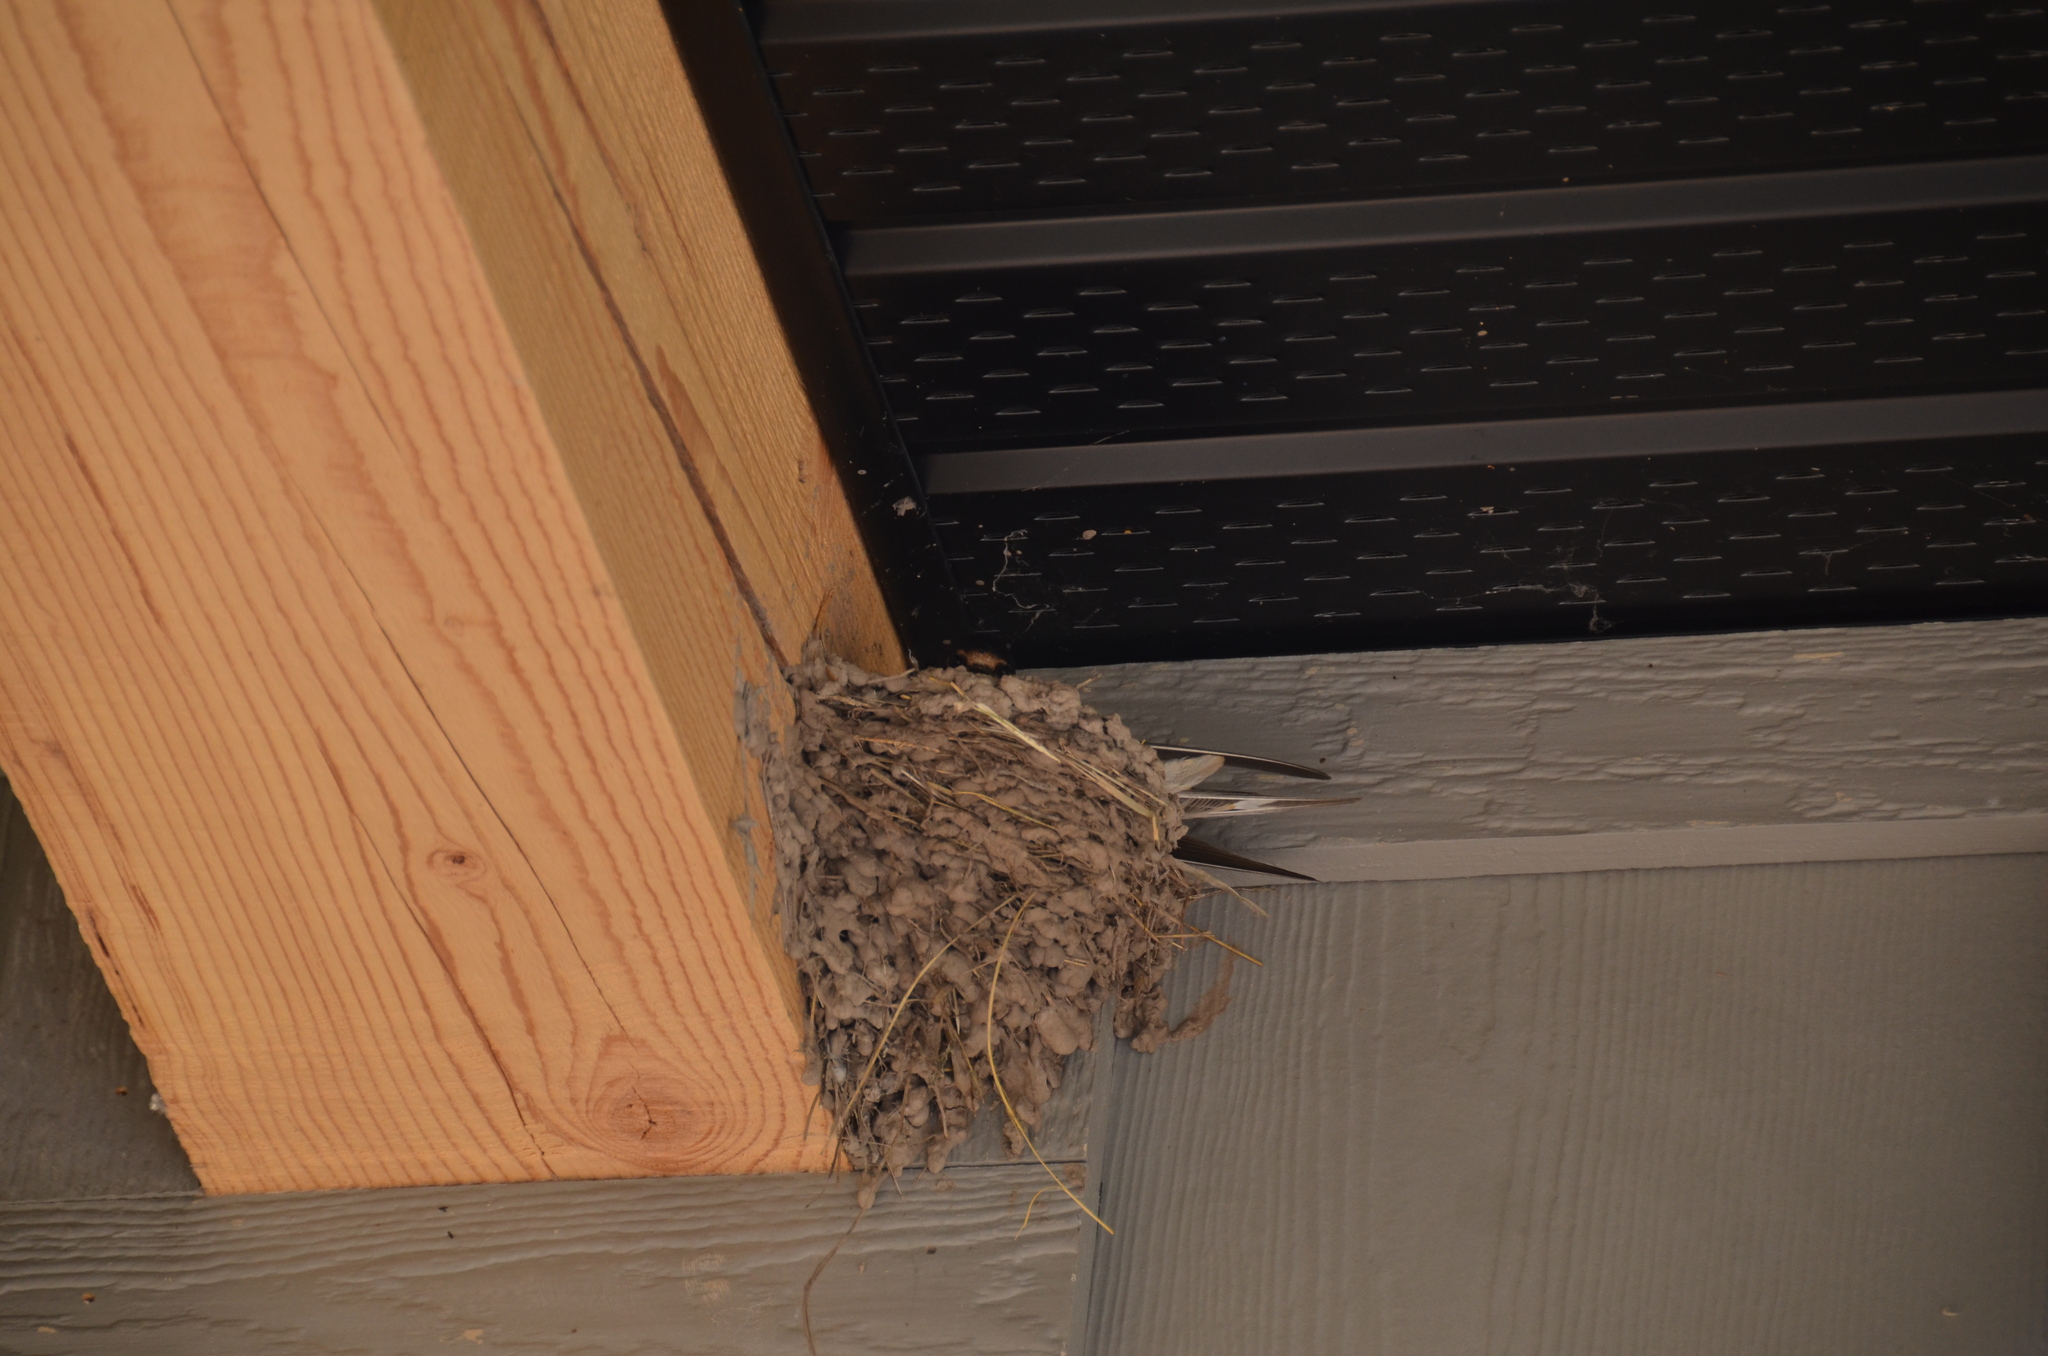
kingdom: Animalia
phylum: Chordata
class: Aves
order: Passeriformes
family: Hirundinidae
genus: Hirundo
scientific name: Hirundo rustica
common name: Barn swallow
